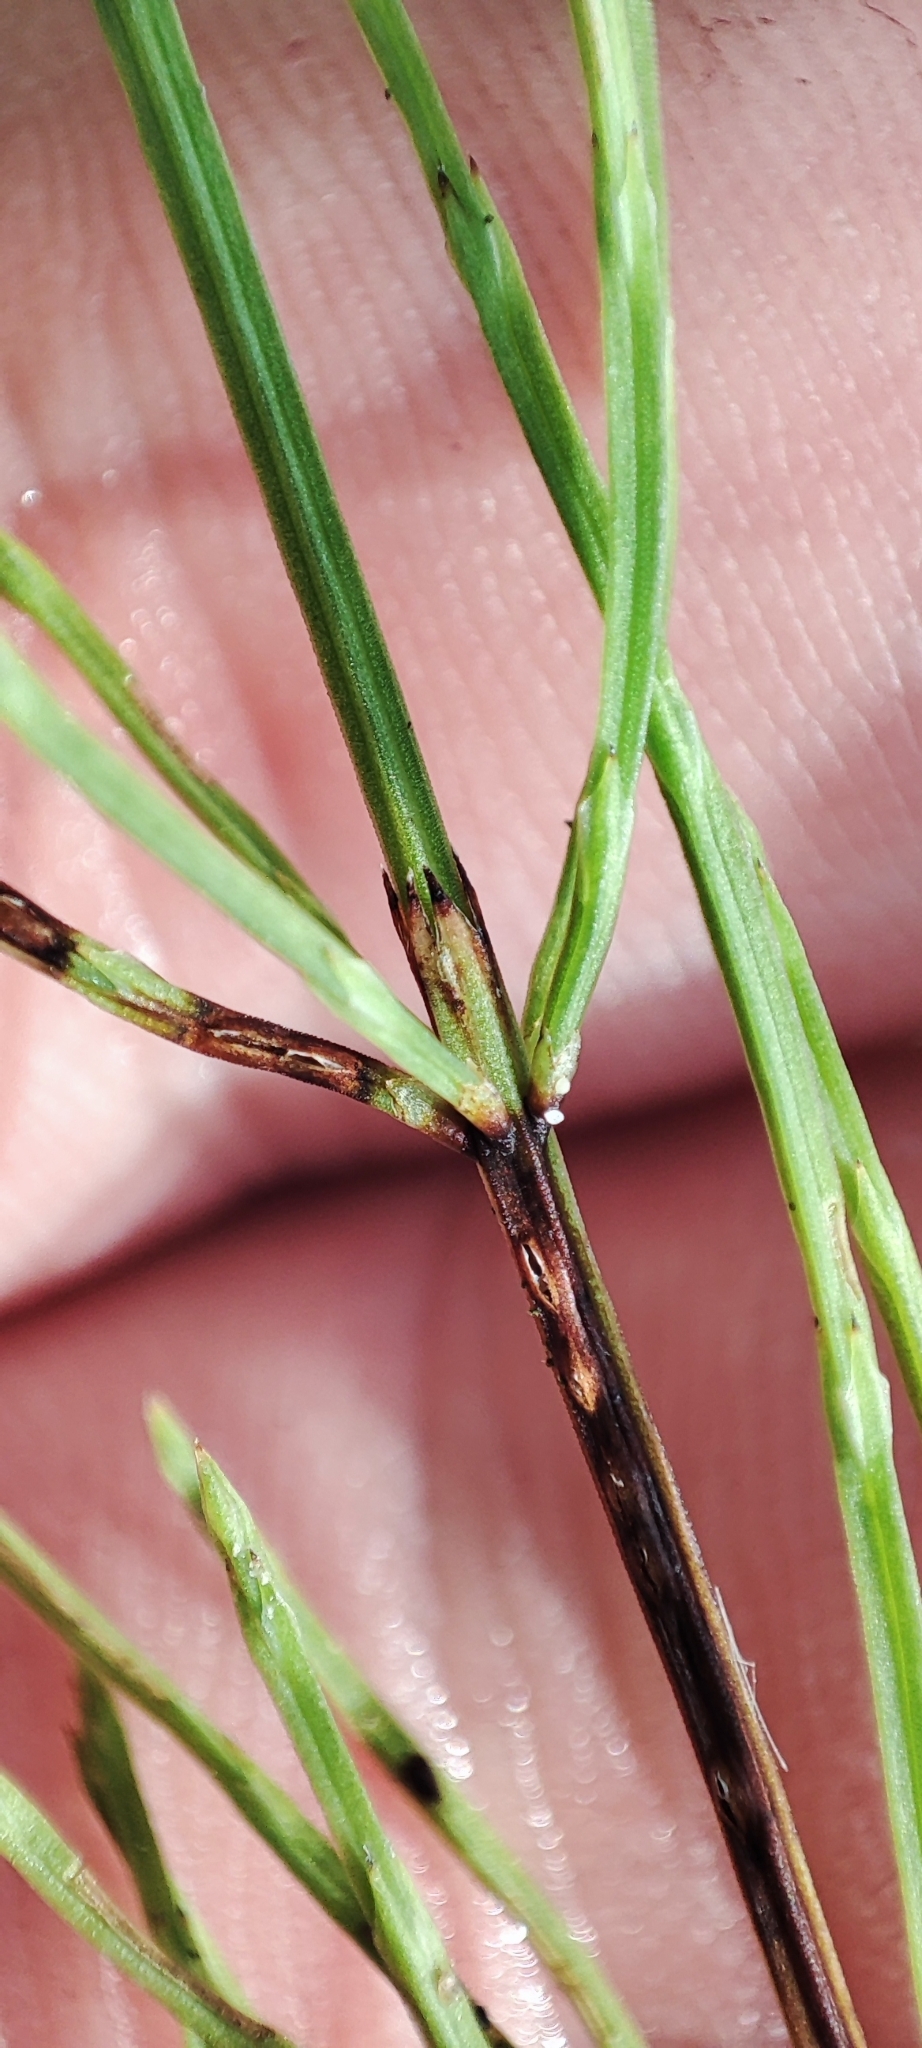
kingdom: Plantae
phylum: Tracheophyta
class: Polypodiopsida
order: Equisetales
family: Equisetaceae
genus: Equisetum
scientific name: Equisetum arvense
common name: Field horsetail
